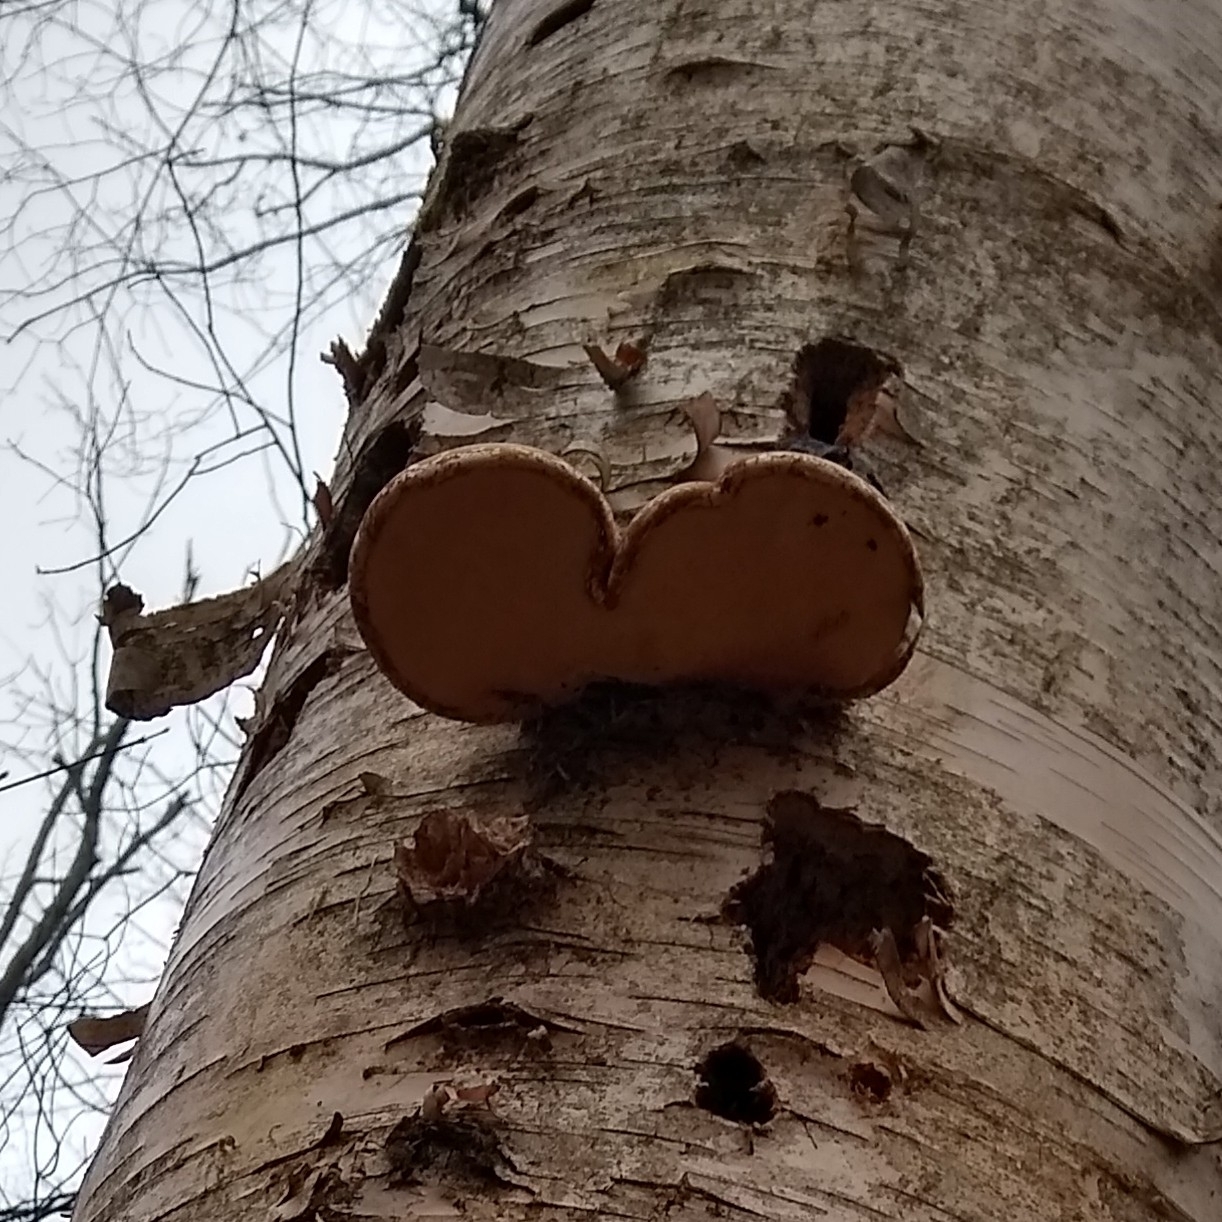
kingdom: Fungi
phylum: Basidiomycota
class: Agaricomycetes
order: Polyporales
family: Fomitopsidaceae
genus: Fomitopsis
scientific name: Fomitopsis betulina
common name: Birch polypore
